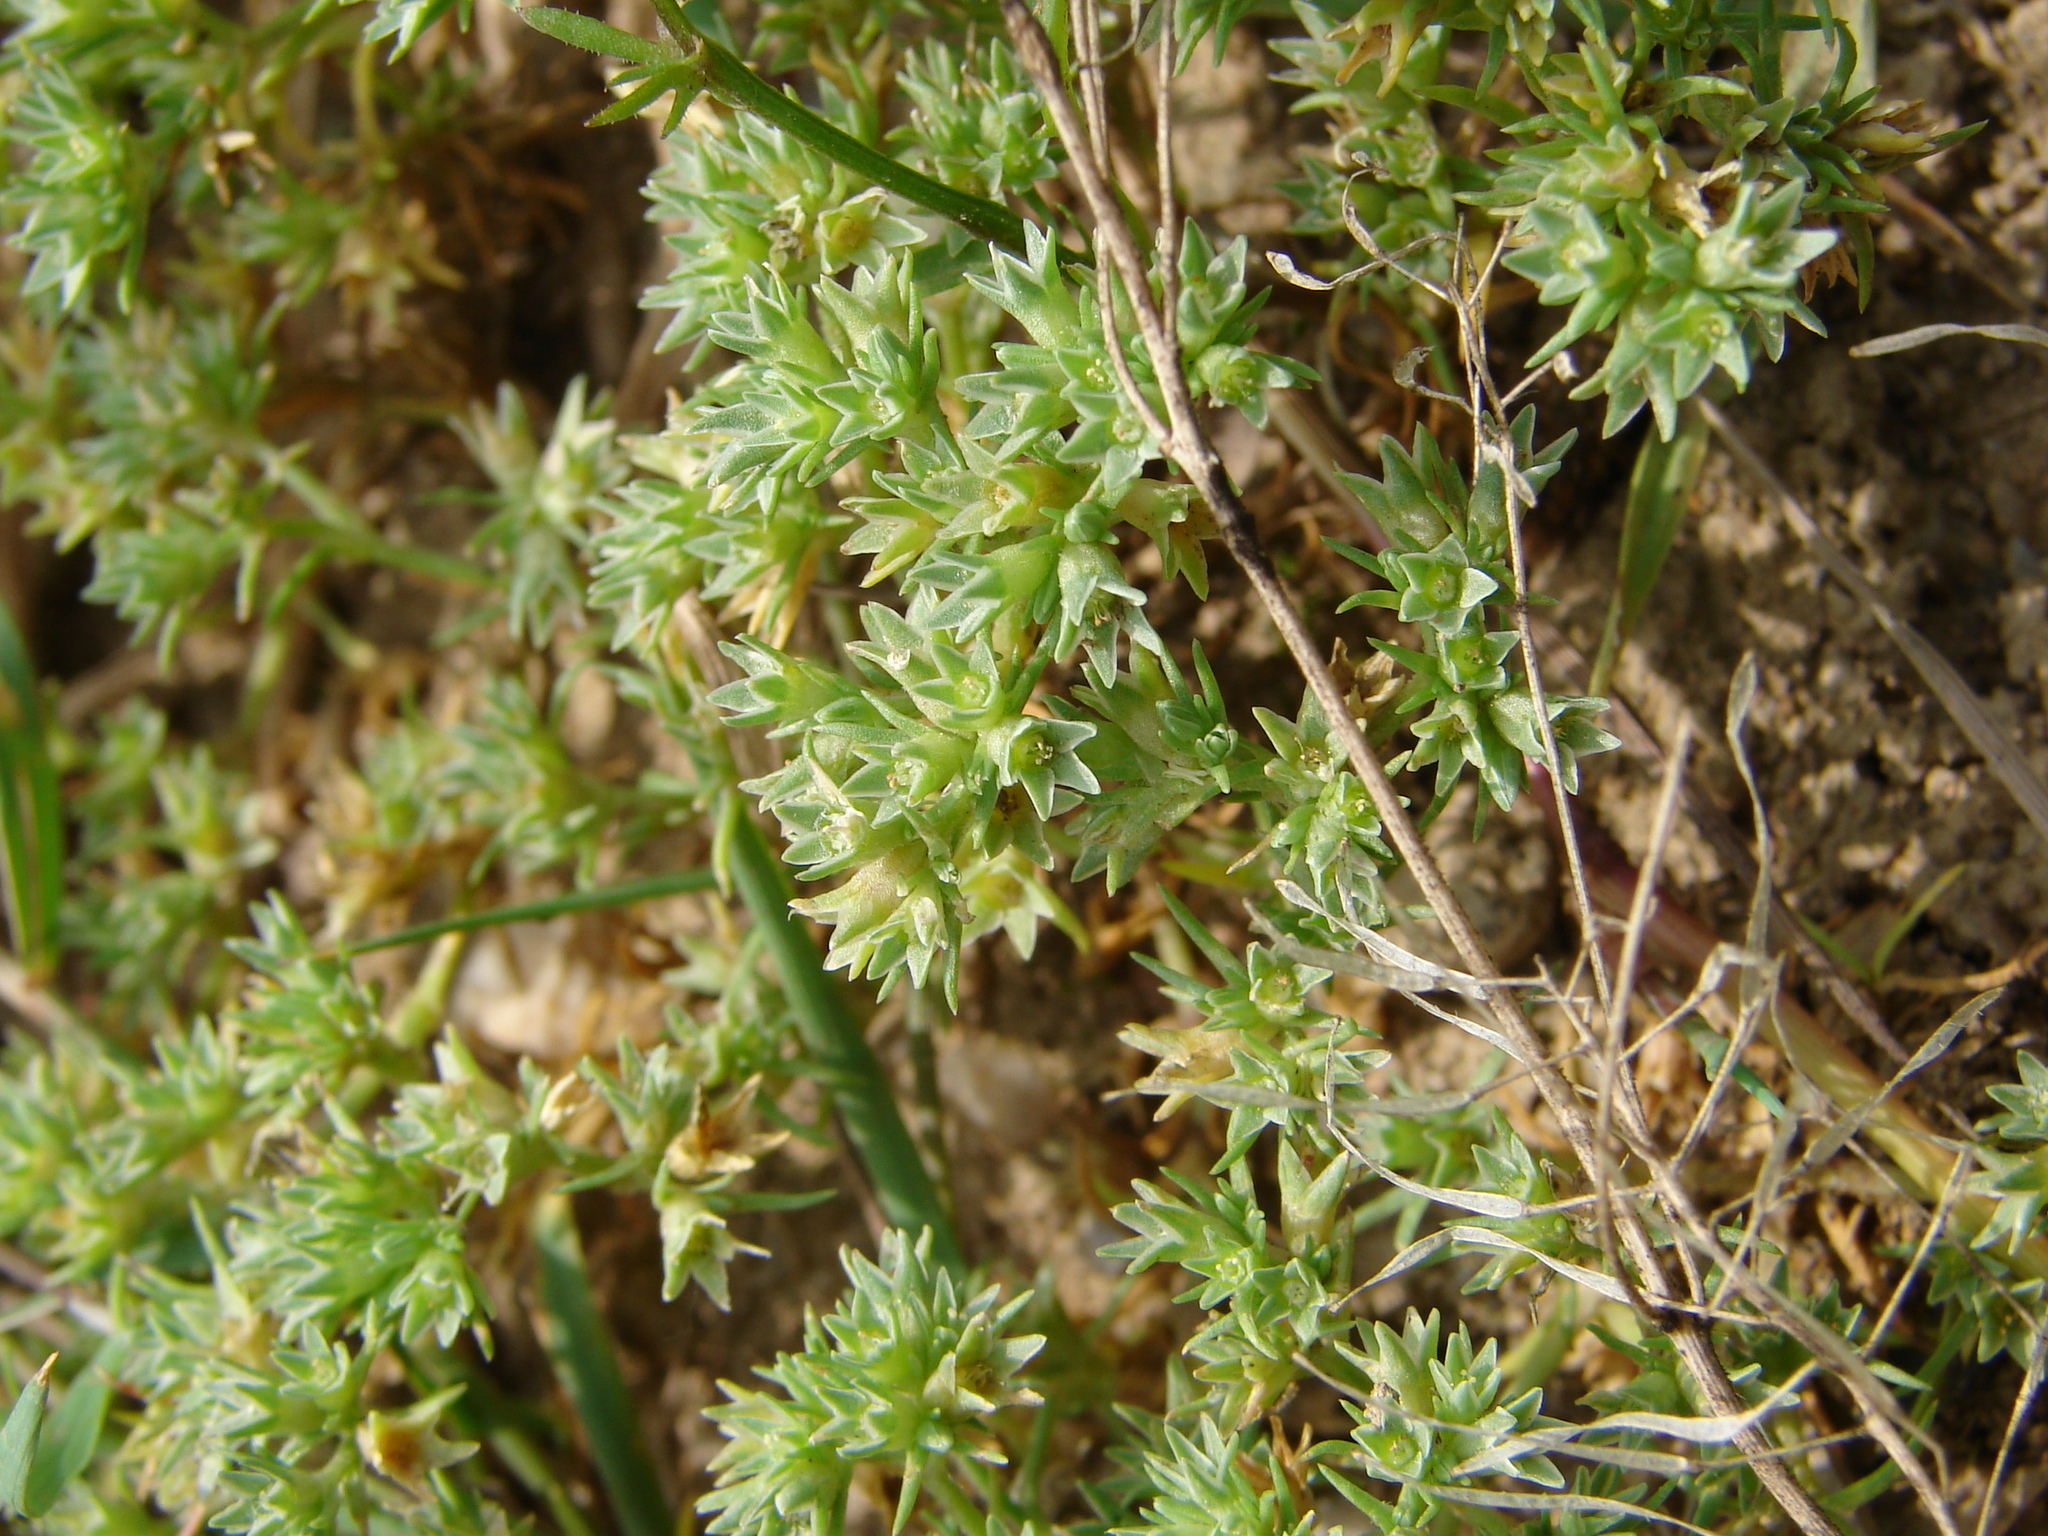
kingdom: Plantae
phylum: Tracheophyta
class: Magnoliopsida
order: Caryophyllales
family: Caryophyllaceae
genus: Scleranthus
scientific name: Scleranthus annuus
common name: Annual knawel
